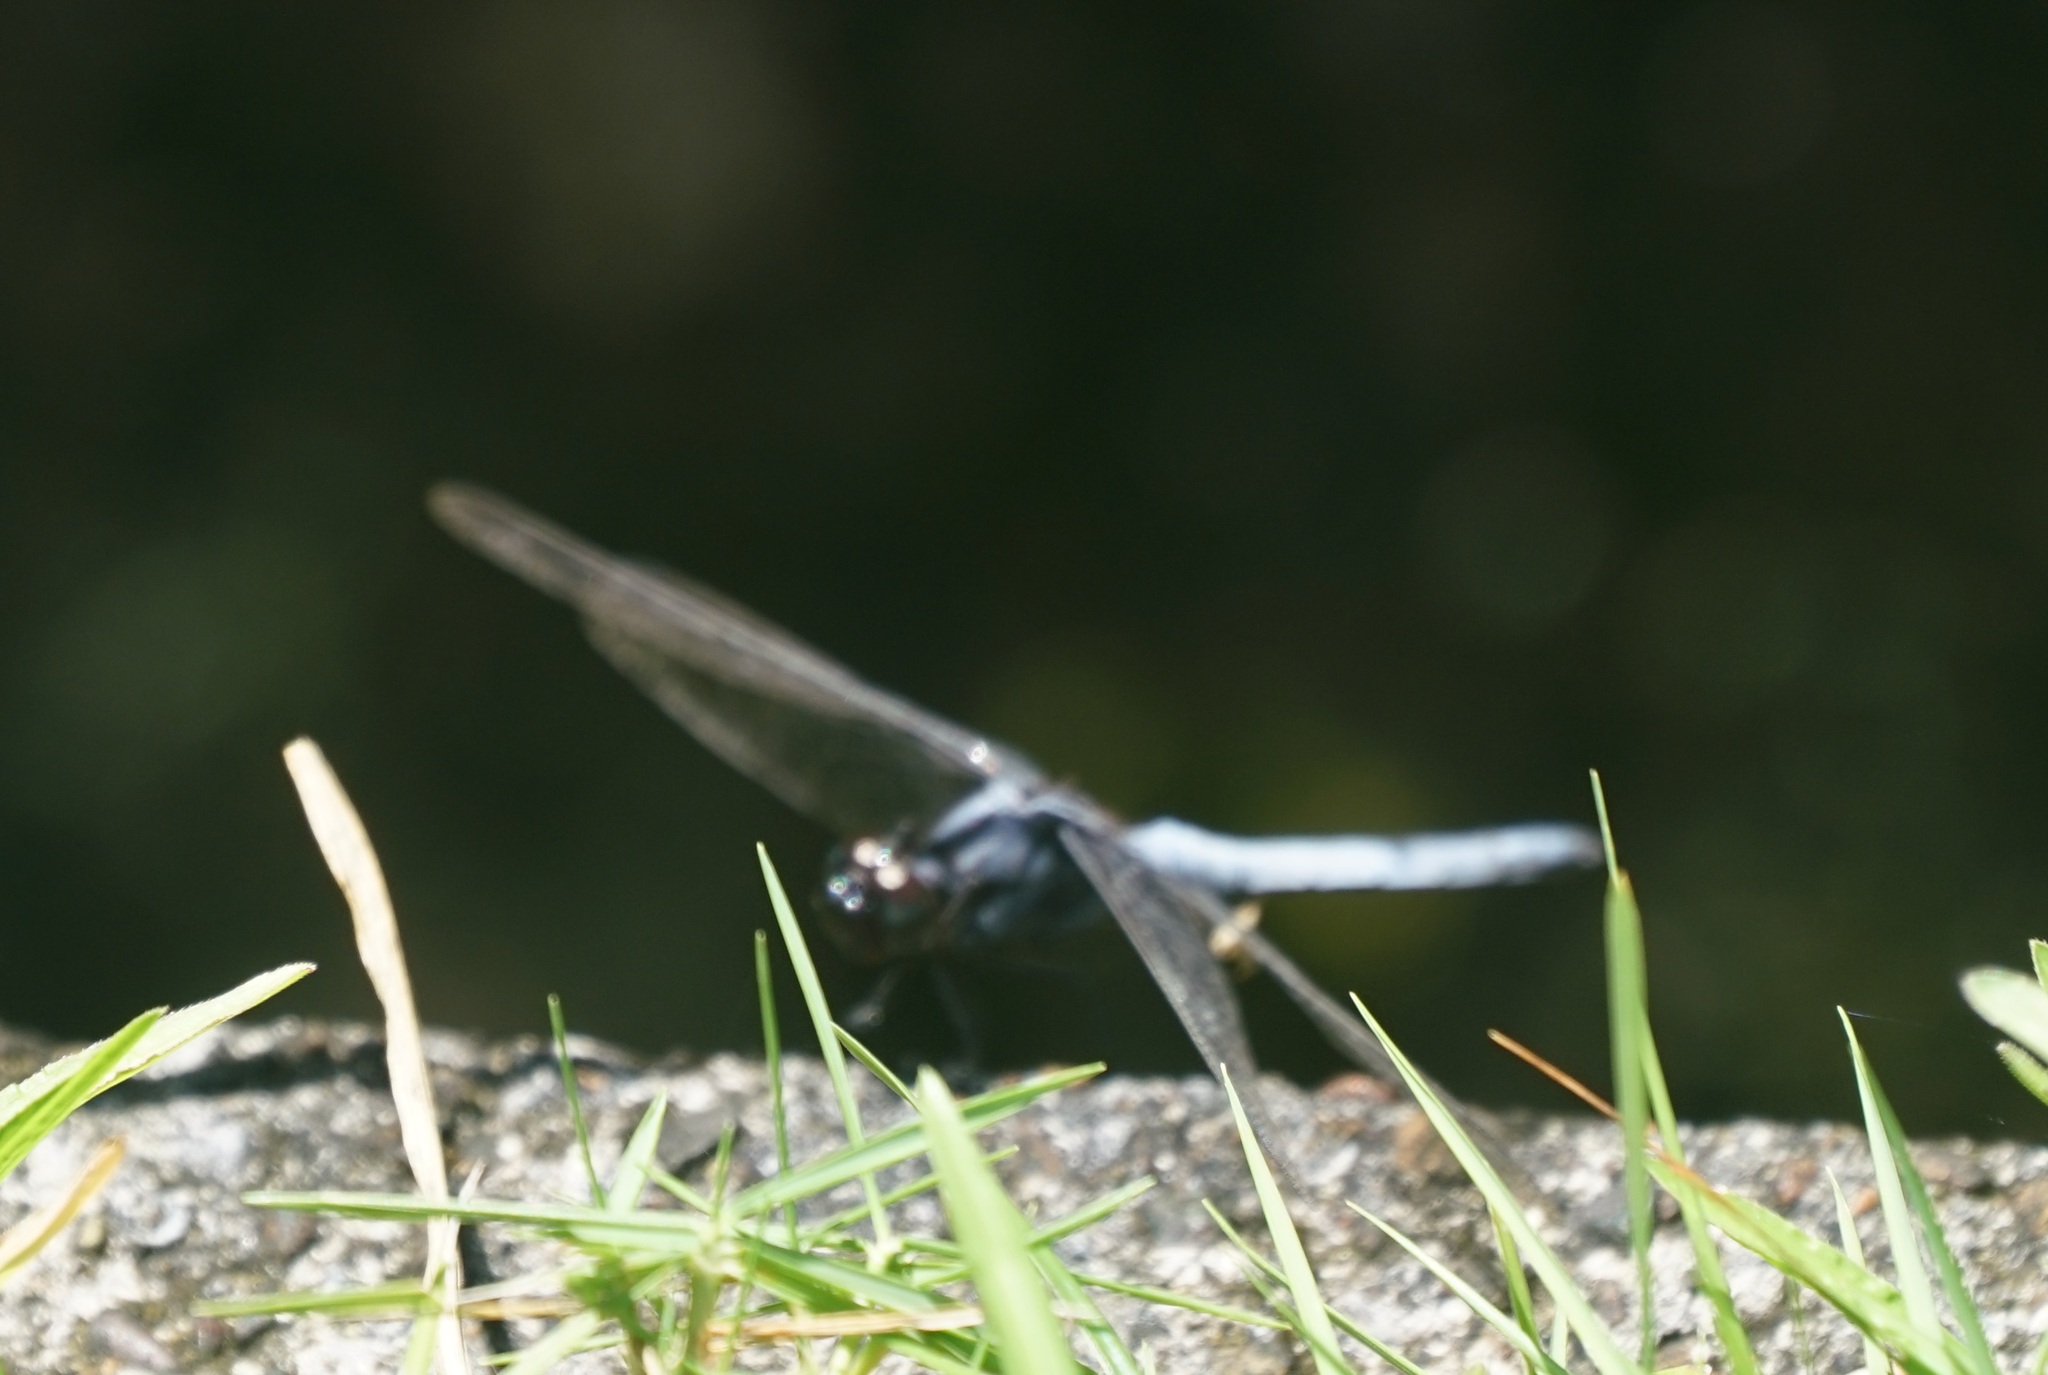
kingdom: Animalia
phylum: Arthropoda
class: Insecta
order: Odonata
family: Libellulidae
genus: Orthetrum
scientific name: Orthetrum glaucum
